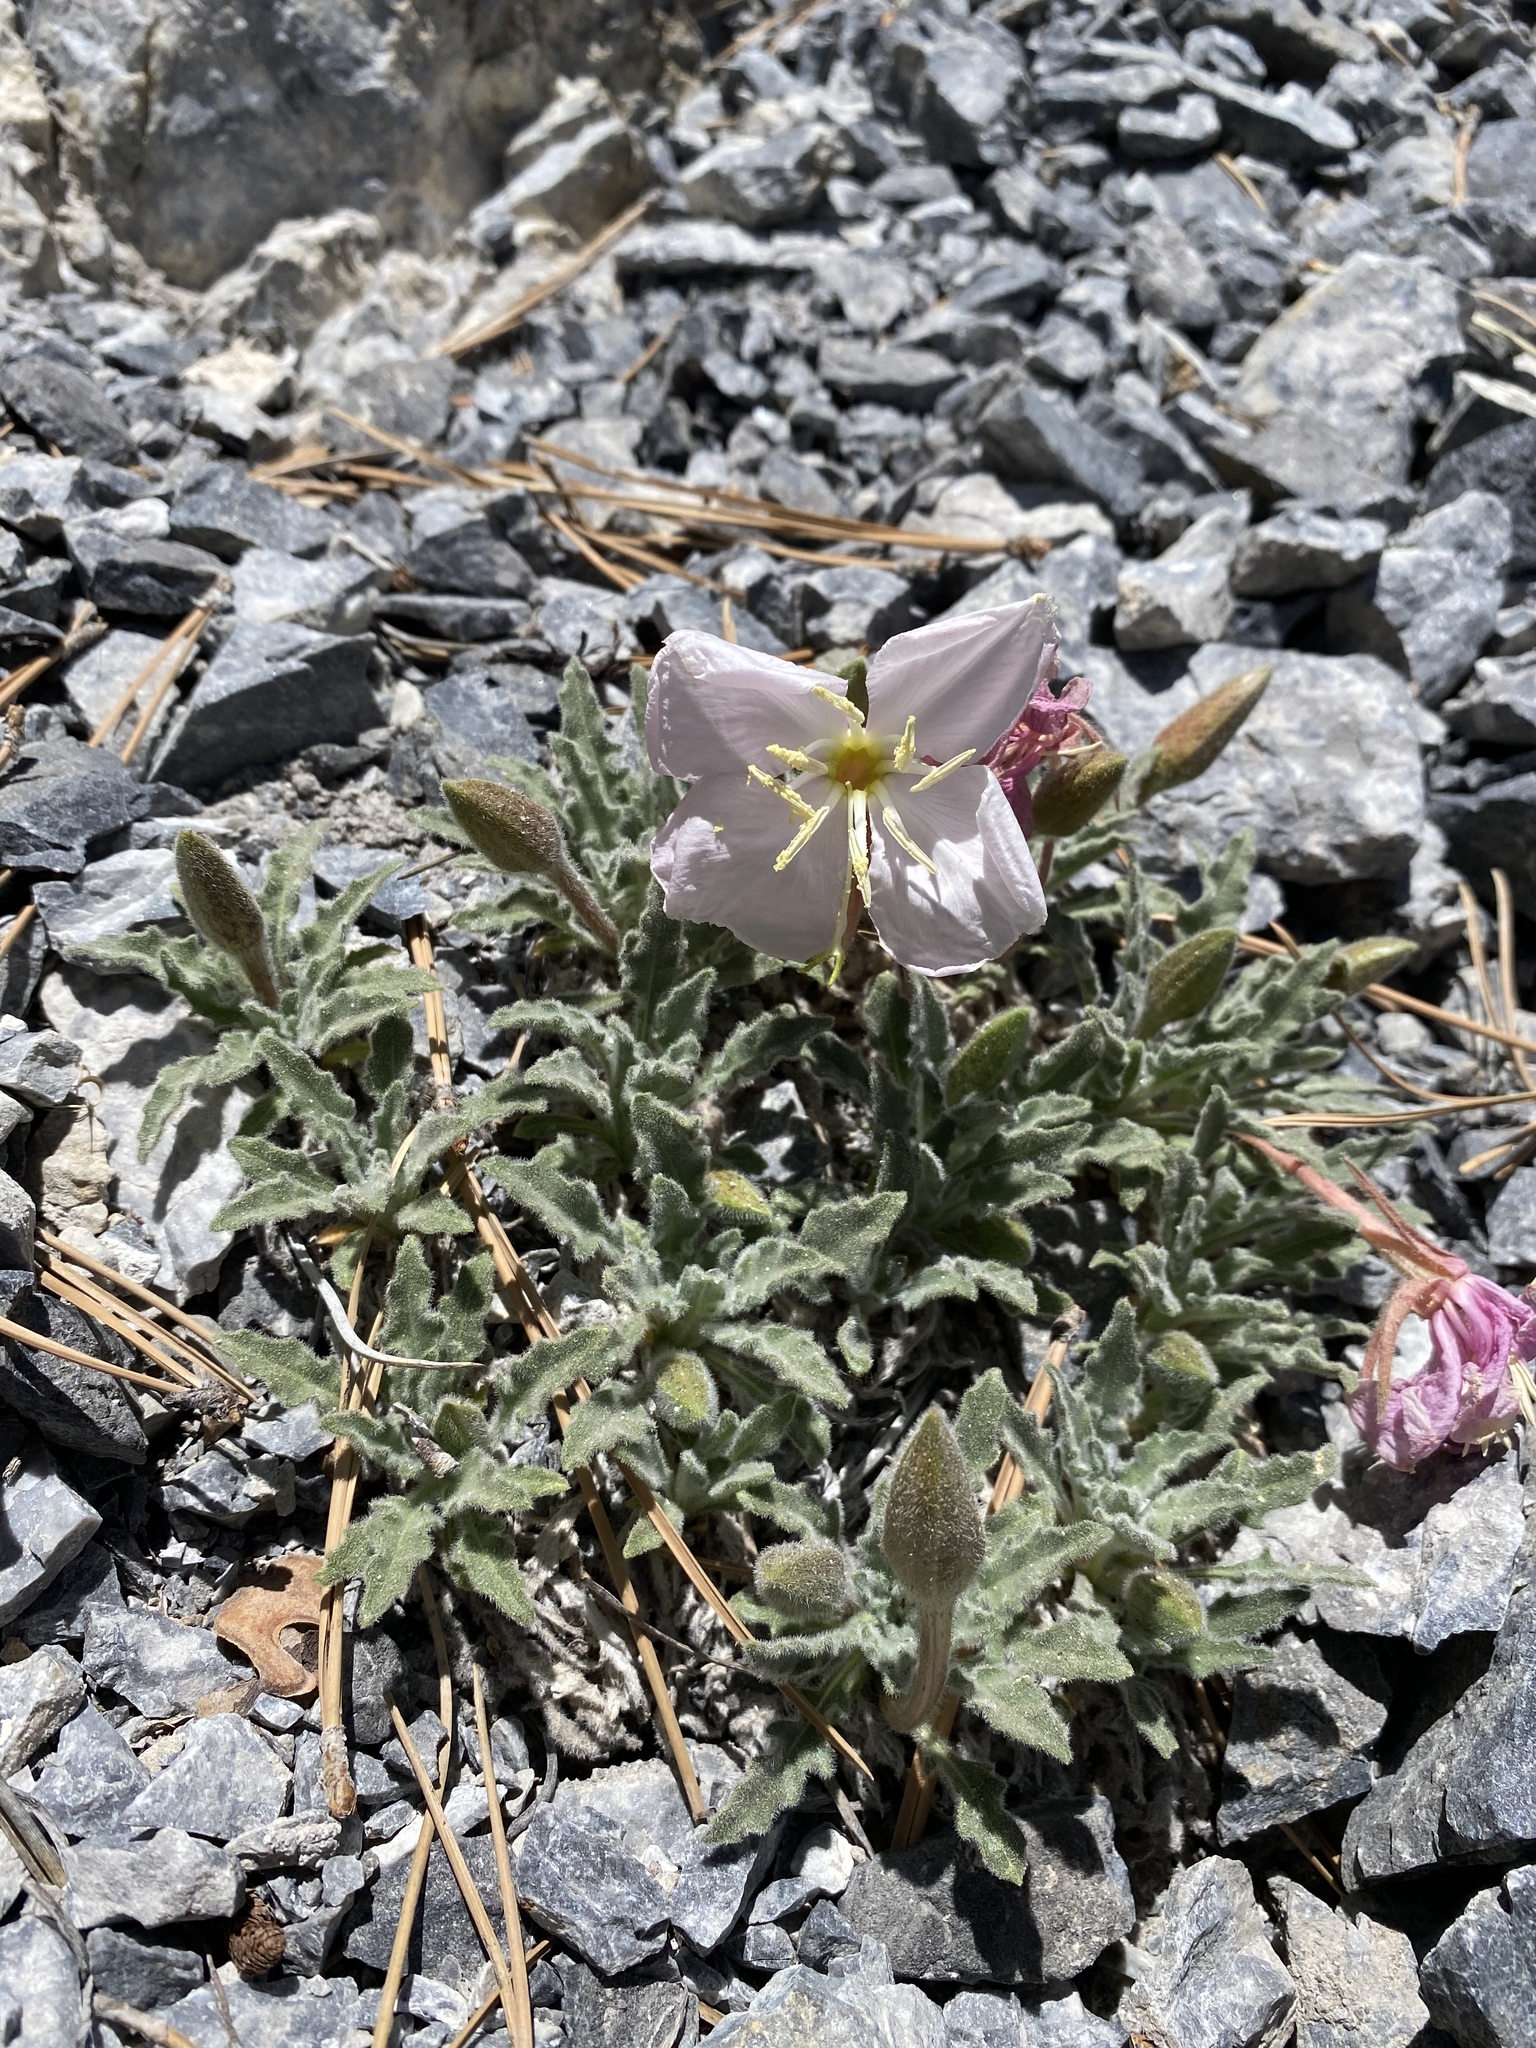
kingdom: Plantae
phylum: Tracheophyta
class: Magnoliopsida
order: Myrtales
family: Onagraceae
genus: Oenothera
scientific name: Oenothera cespitosa
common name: Tufted evening-primrose
